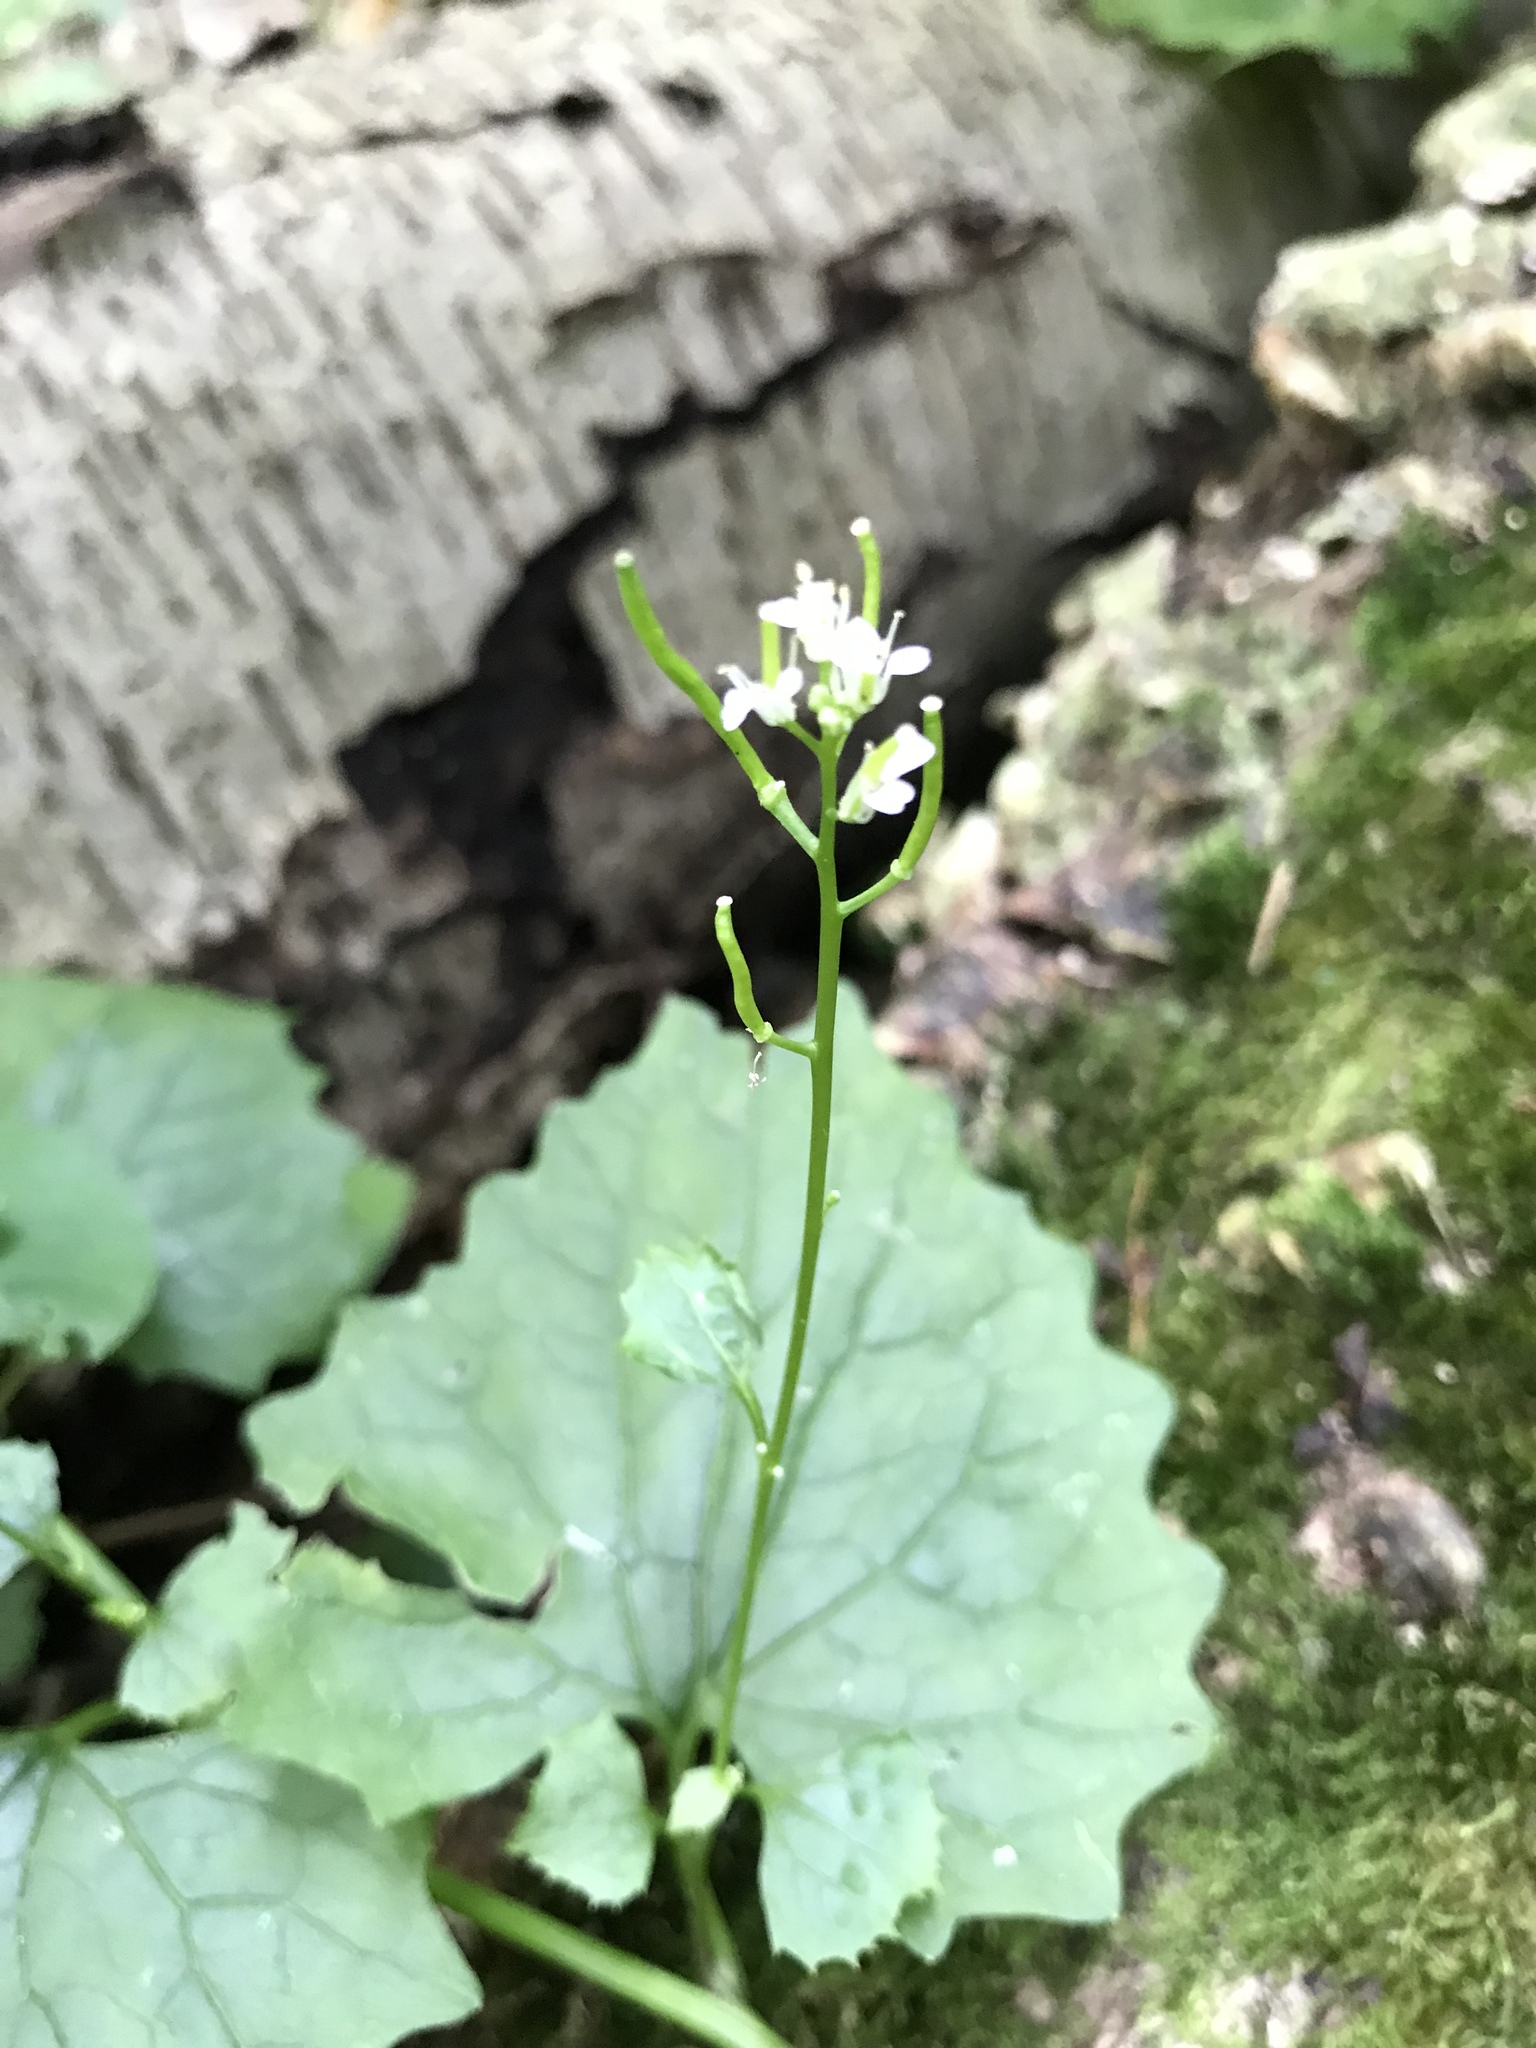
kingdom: Plantae
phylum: Tracheophyta
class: Magnoliopsida
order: Brassicales
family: Brassicaceae
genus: Alliaria
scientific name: Alliaria petiolata
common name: Garlic mustard
